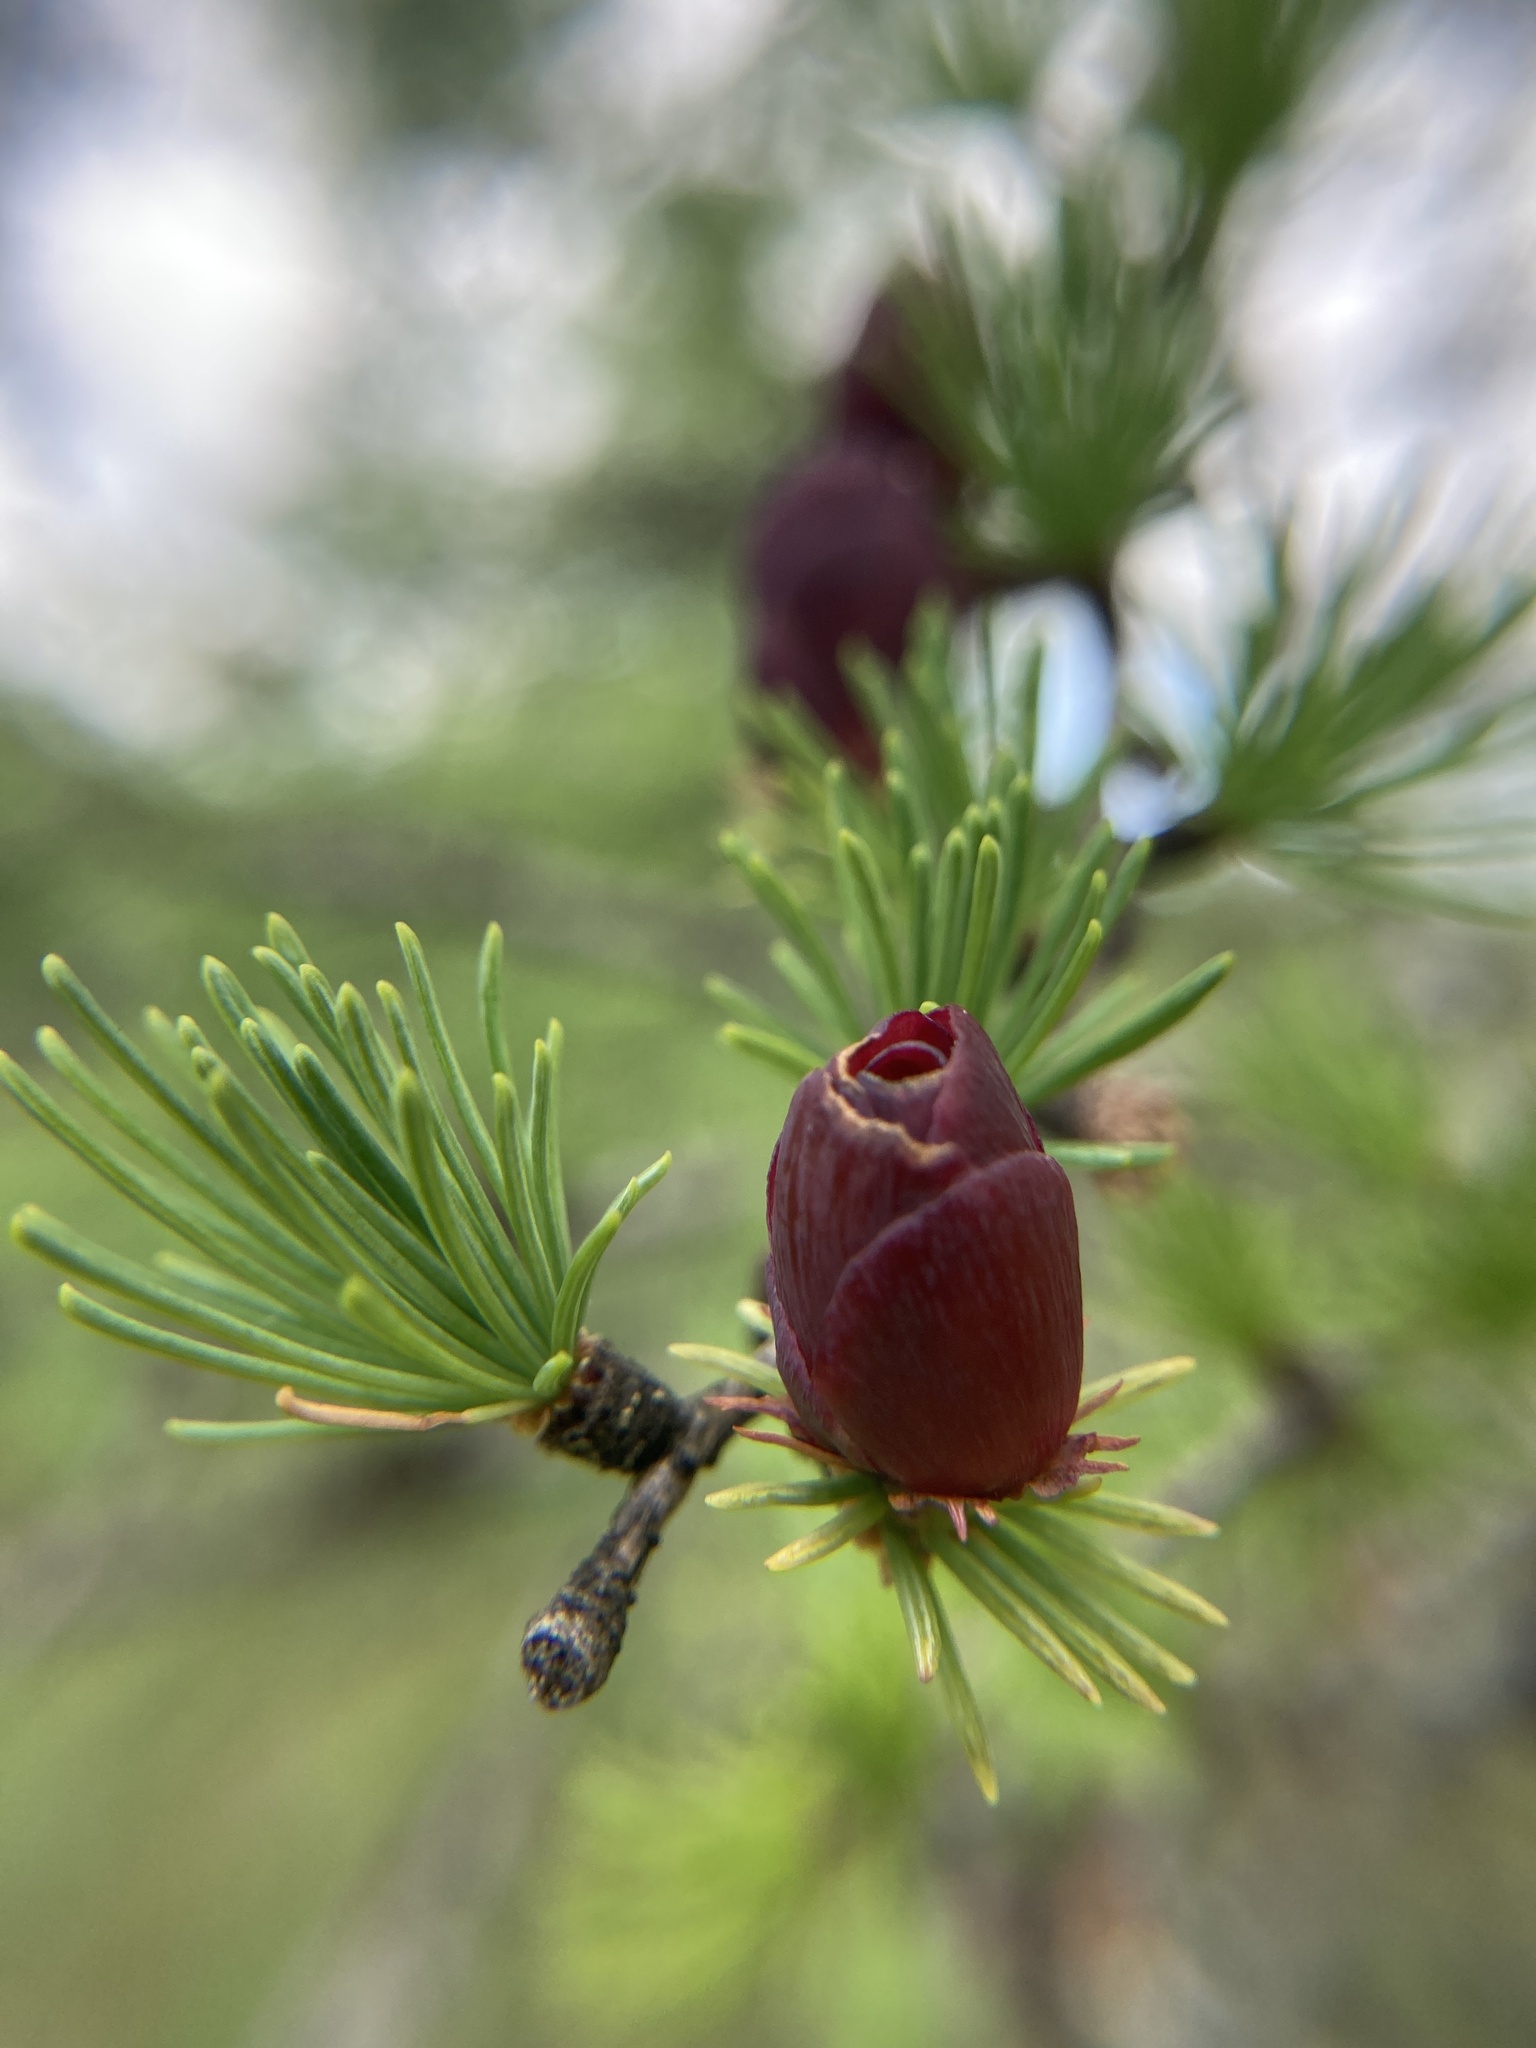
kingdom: Plantae
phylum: Tracheophyta
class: Pinopsida
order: Pinales
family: Pinaceae
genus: Larix
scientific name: Larix laricina
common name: American larch
